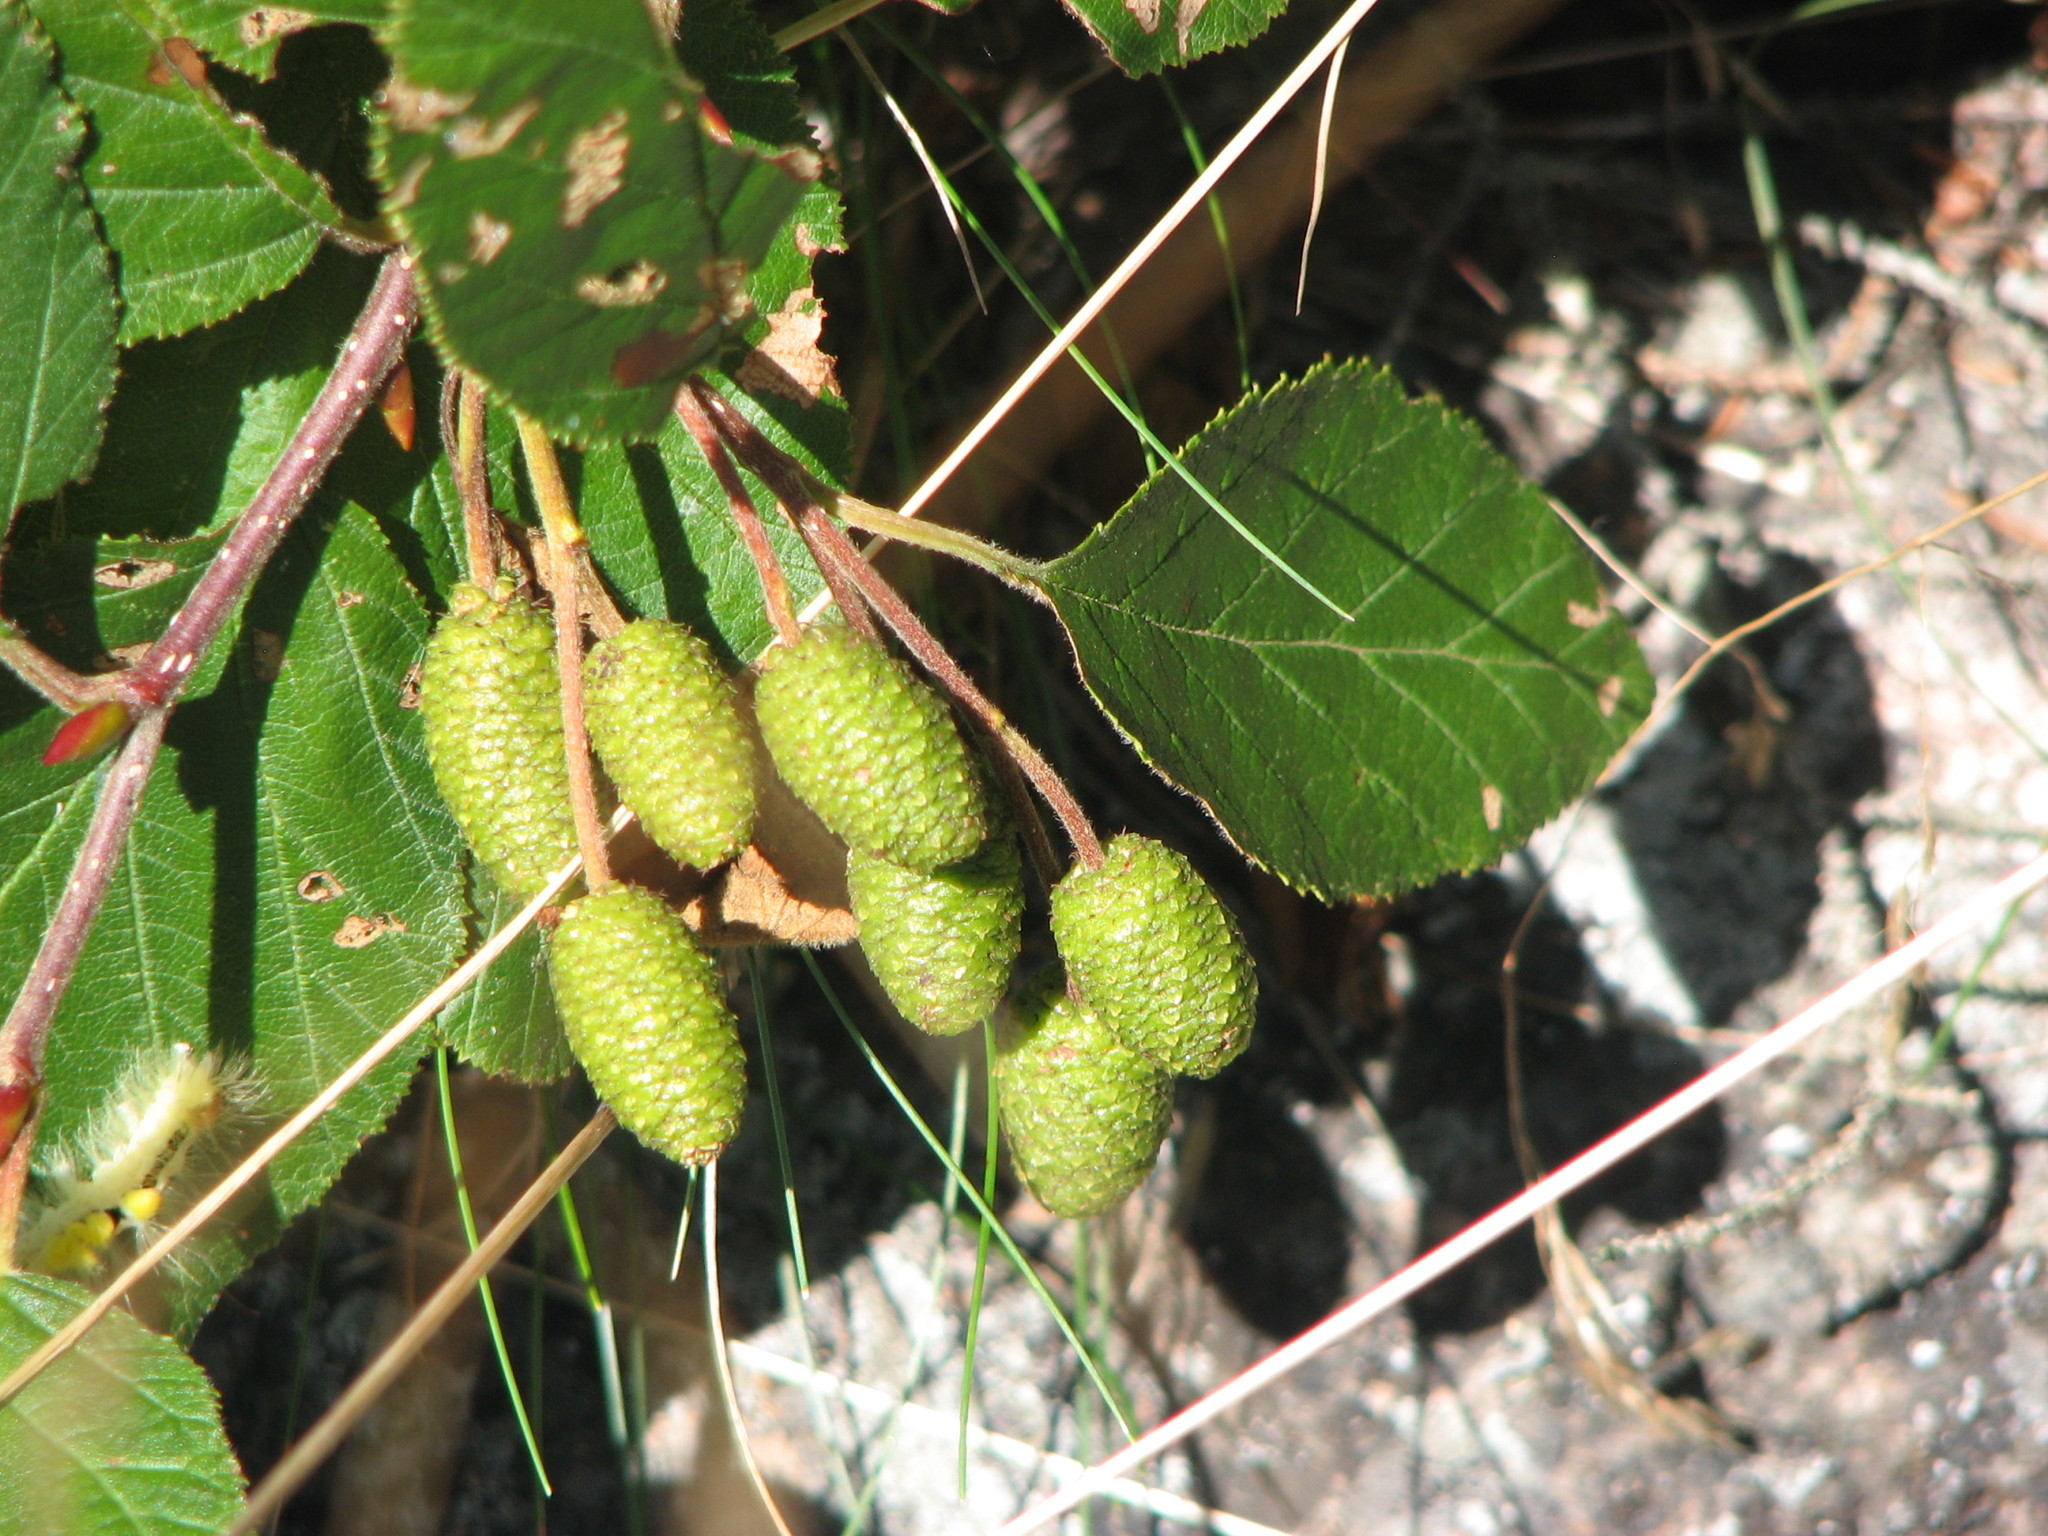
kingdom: Plantae
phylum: Tracheophyta
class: Magnoliopsida
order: Fagales
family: Betulaceae
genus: Alnus
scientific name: Alnus alnobetula
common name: Green alder
